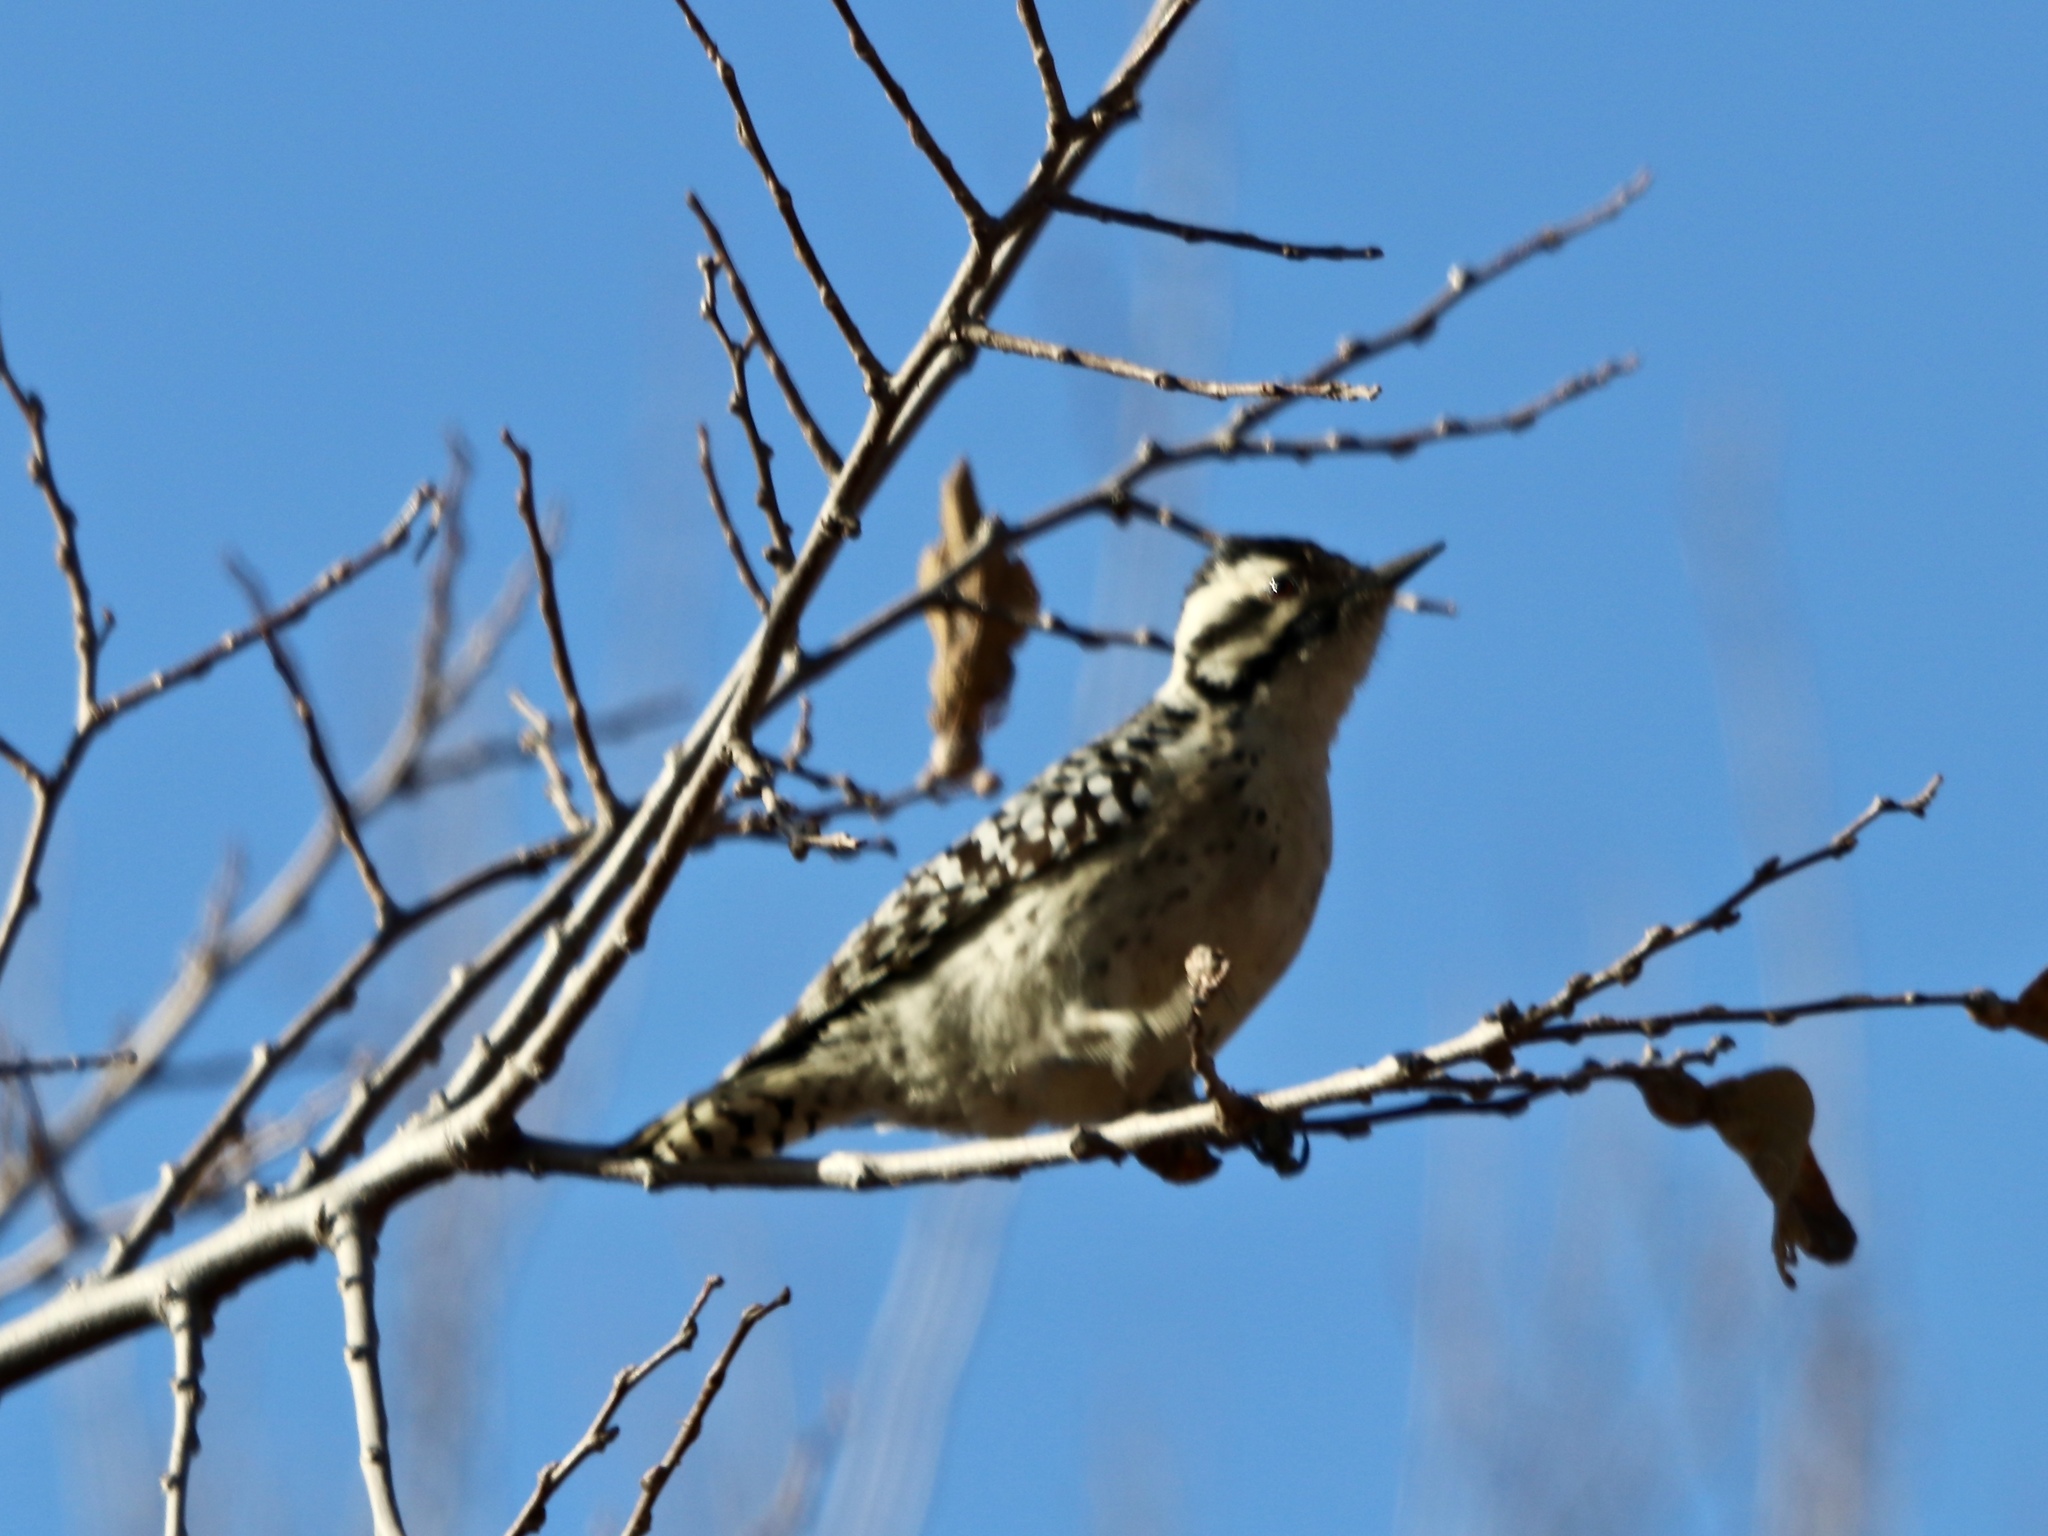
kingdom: Animalia
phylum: Chordata
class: Aves
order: Piciformes
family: Picidae
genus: Dryobates
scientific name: Dryobates scalaris
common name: Ladder-backed woodpecker
